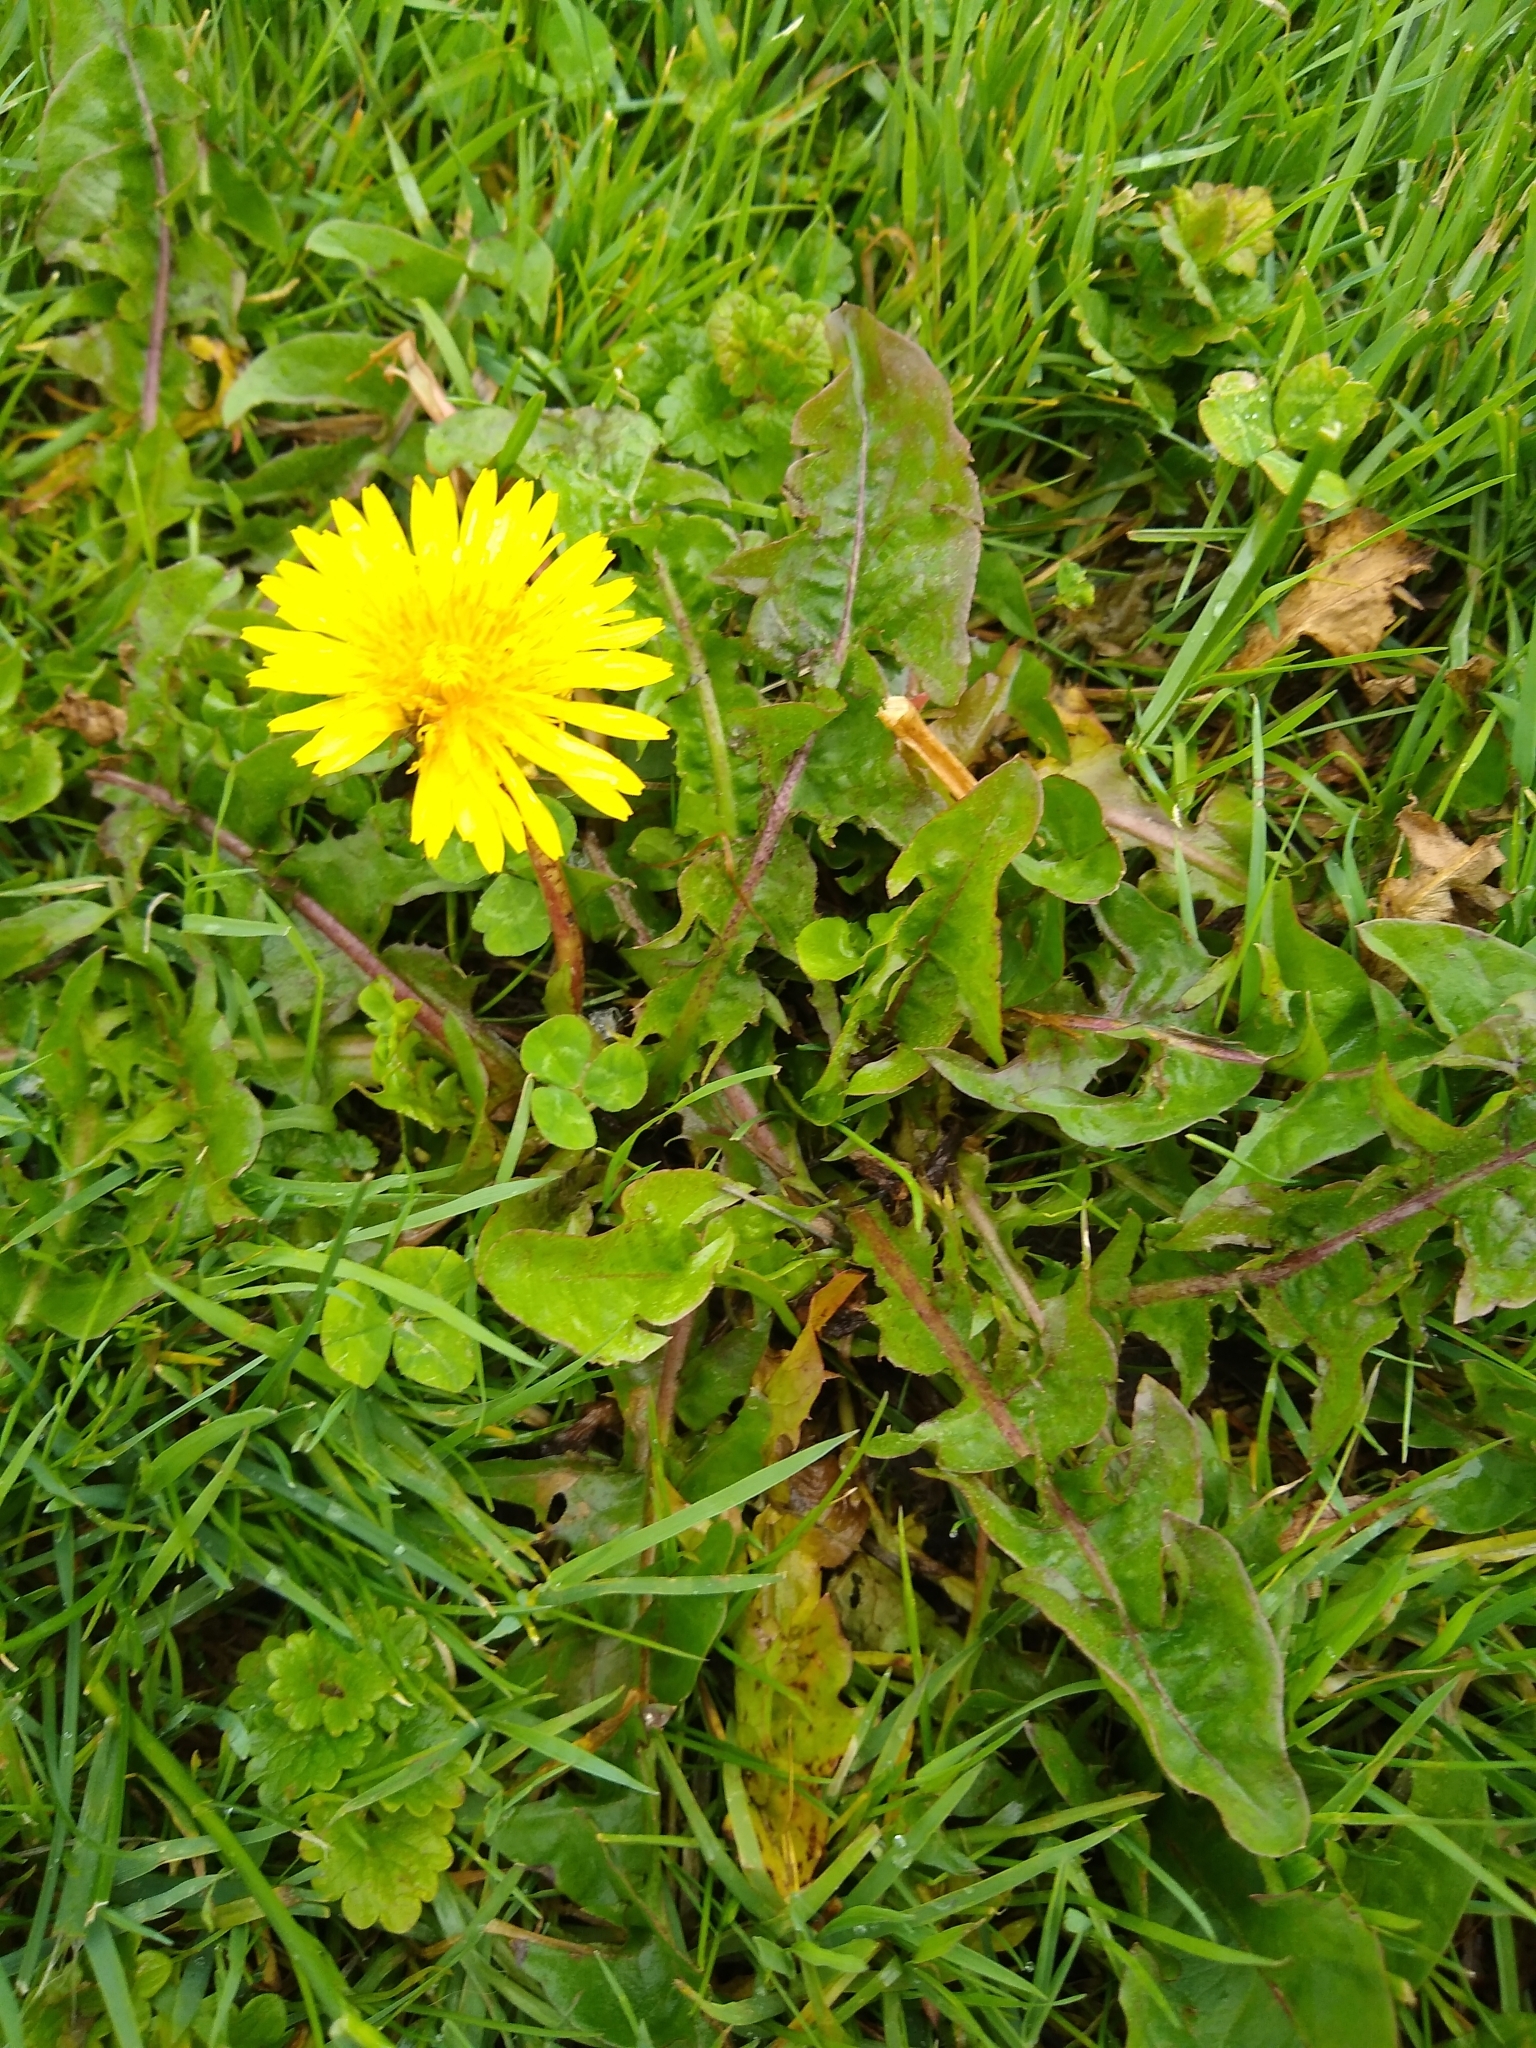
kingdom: Plantae
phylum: Tracheophyta
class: Magnoliopsida
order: Asterales
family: Asteraceae
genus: Taraxacum
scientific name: Taraxacum officinale
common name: Common dandelion
